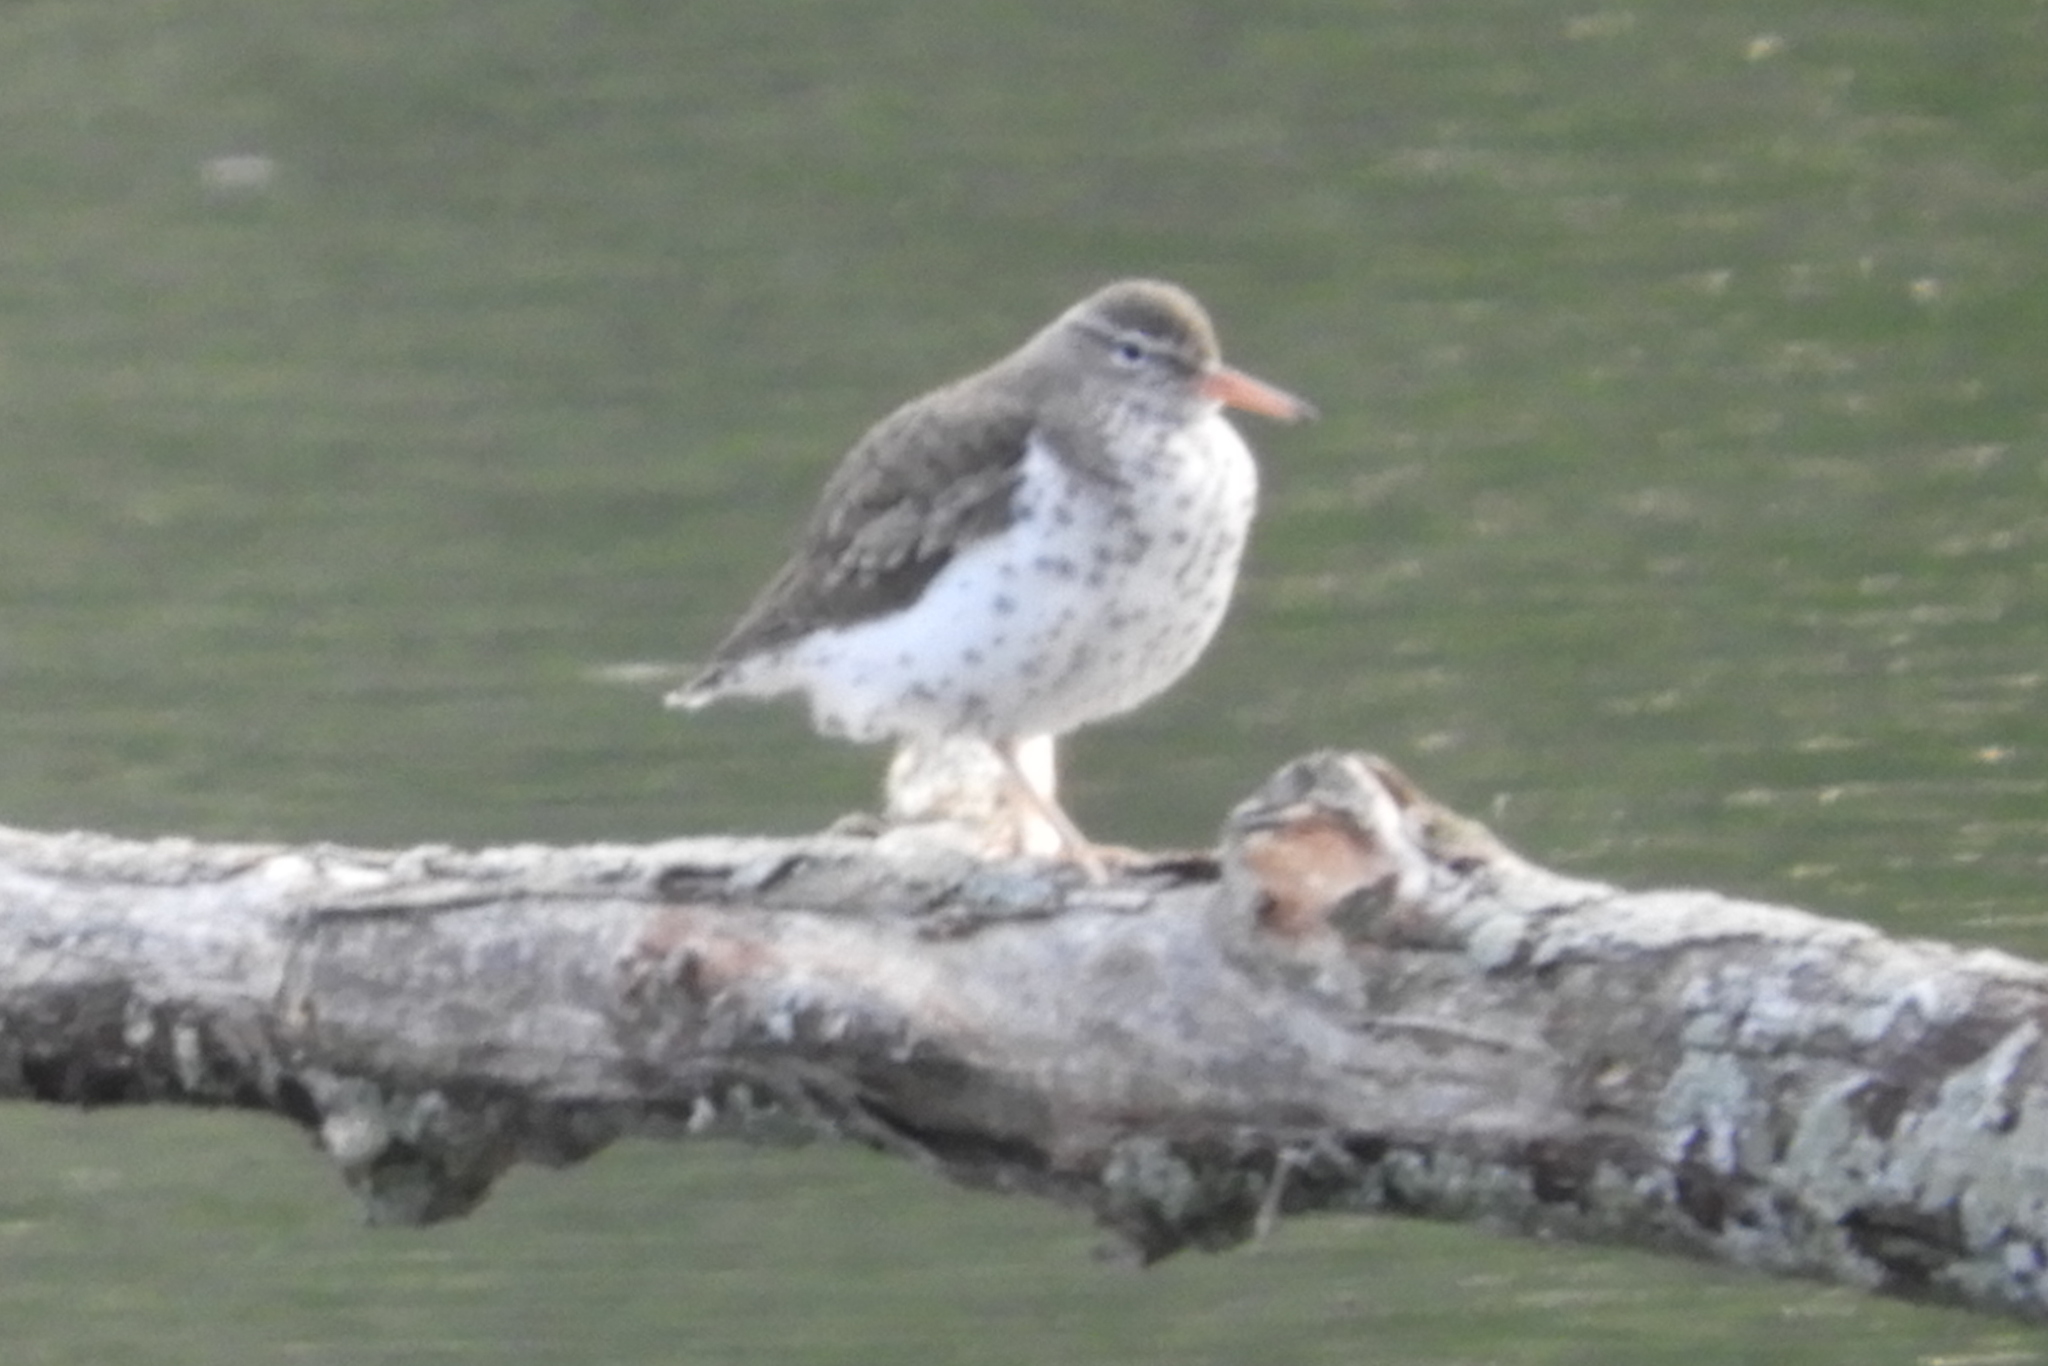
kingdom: Animalia
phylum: Chordata
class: Aves
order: Charadriiformes
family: Scolopacidae
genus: Actitis
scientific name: Actitis macularius
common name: Spotted sandpiper
